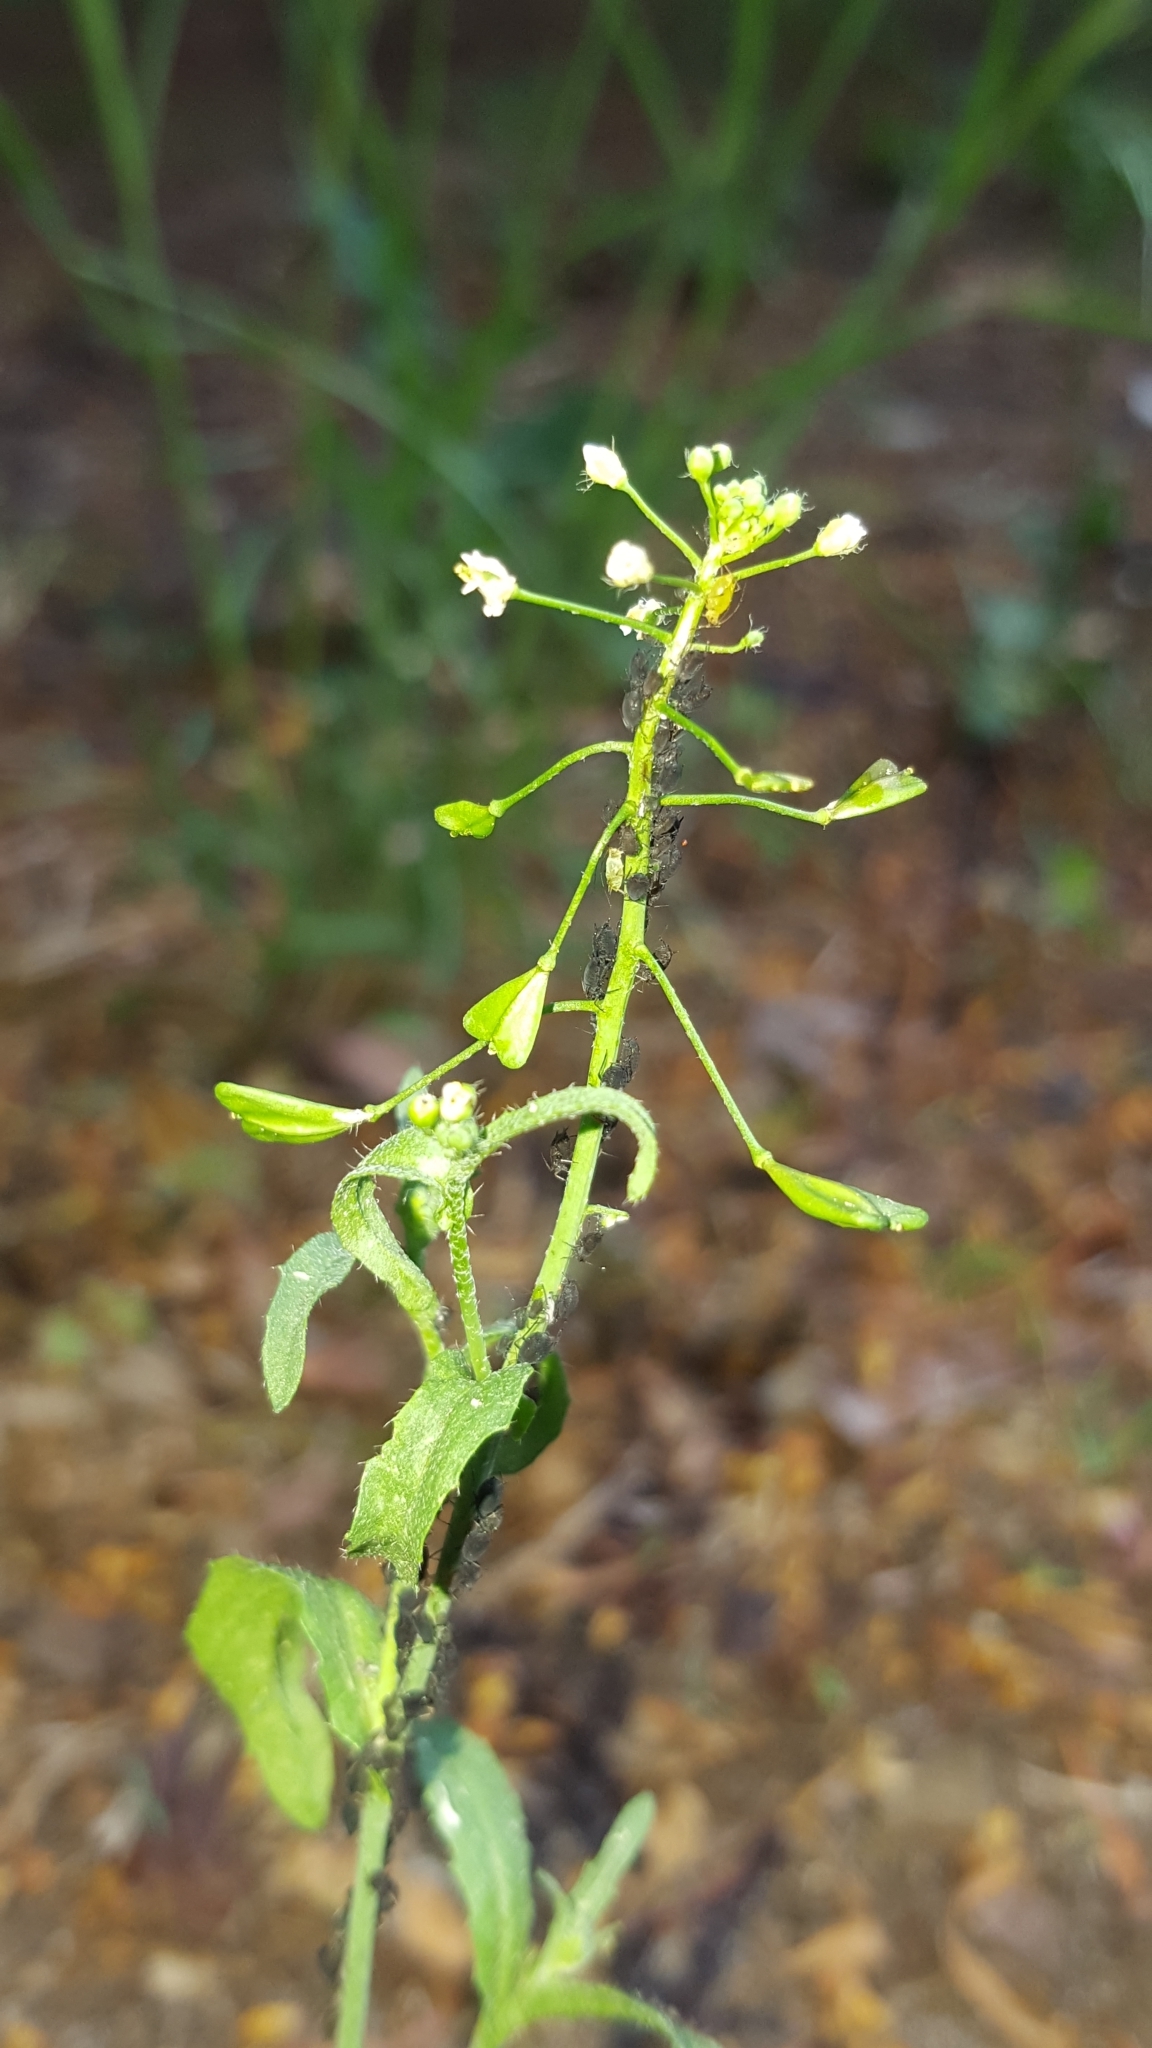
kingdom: Plantae
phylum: Tracheophyta
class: Magnoliopsida
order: Brassicales
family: Brassicaceae
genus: Capsella
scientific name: Capsella bursa-pastoris
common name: Shepherd's purse
